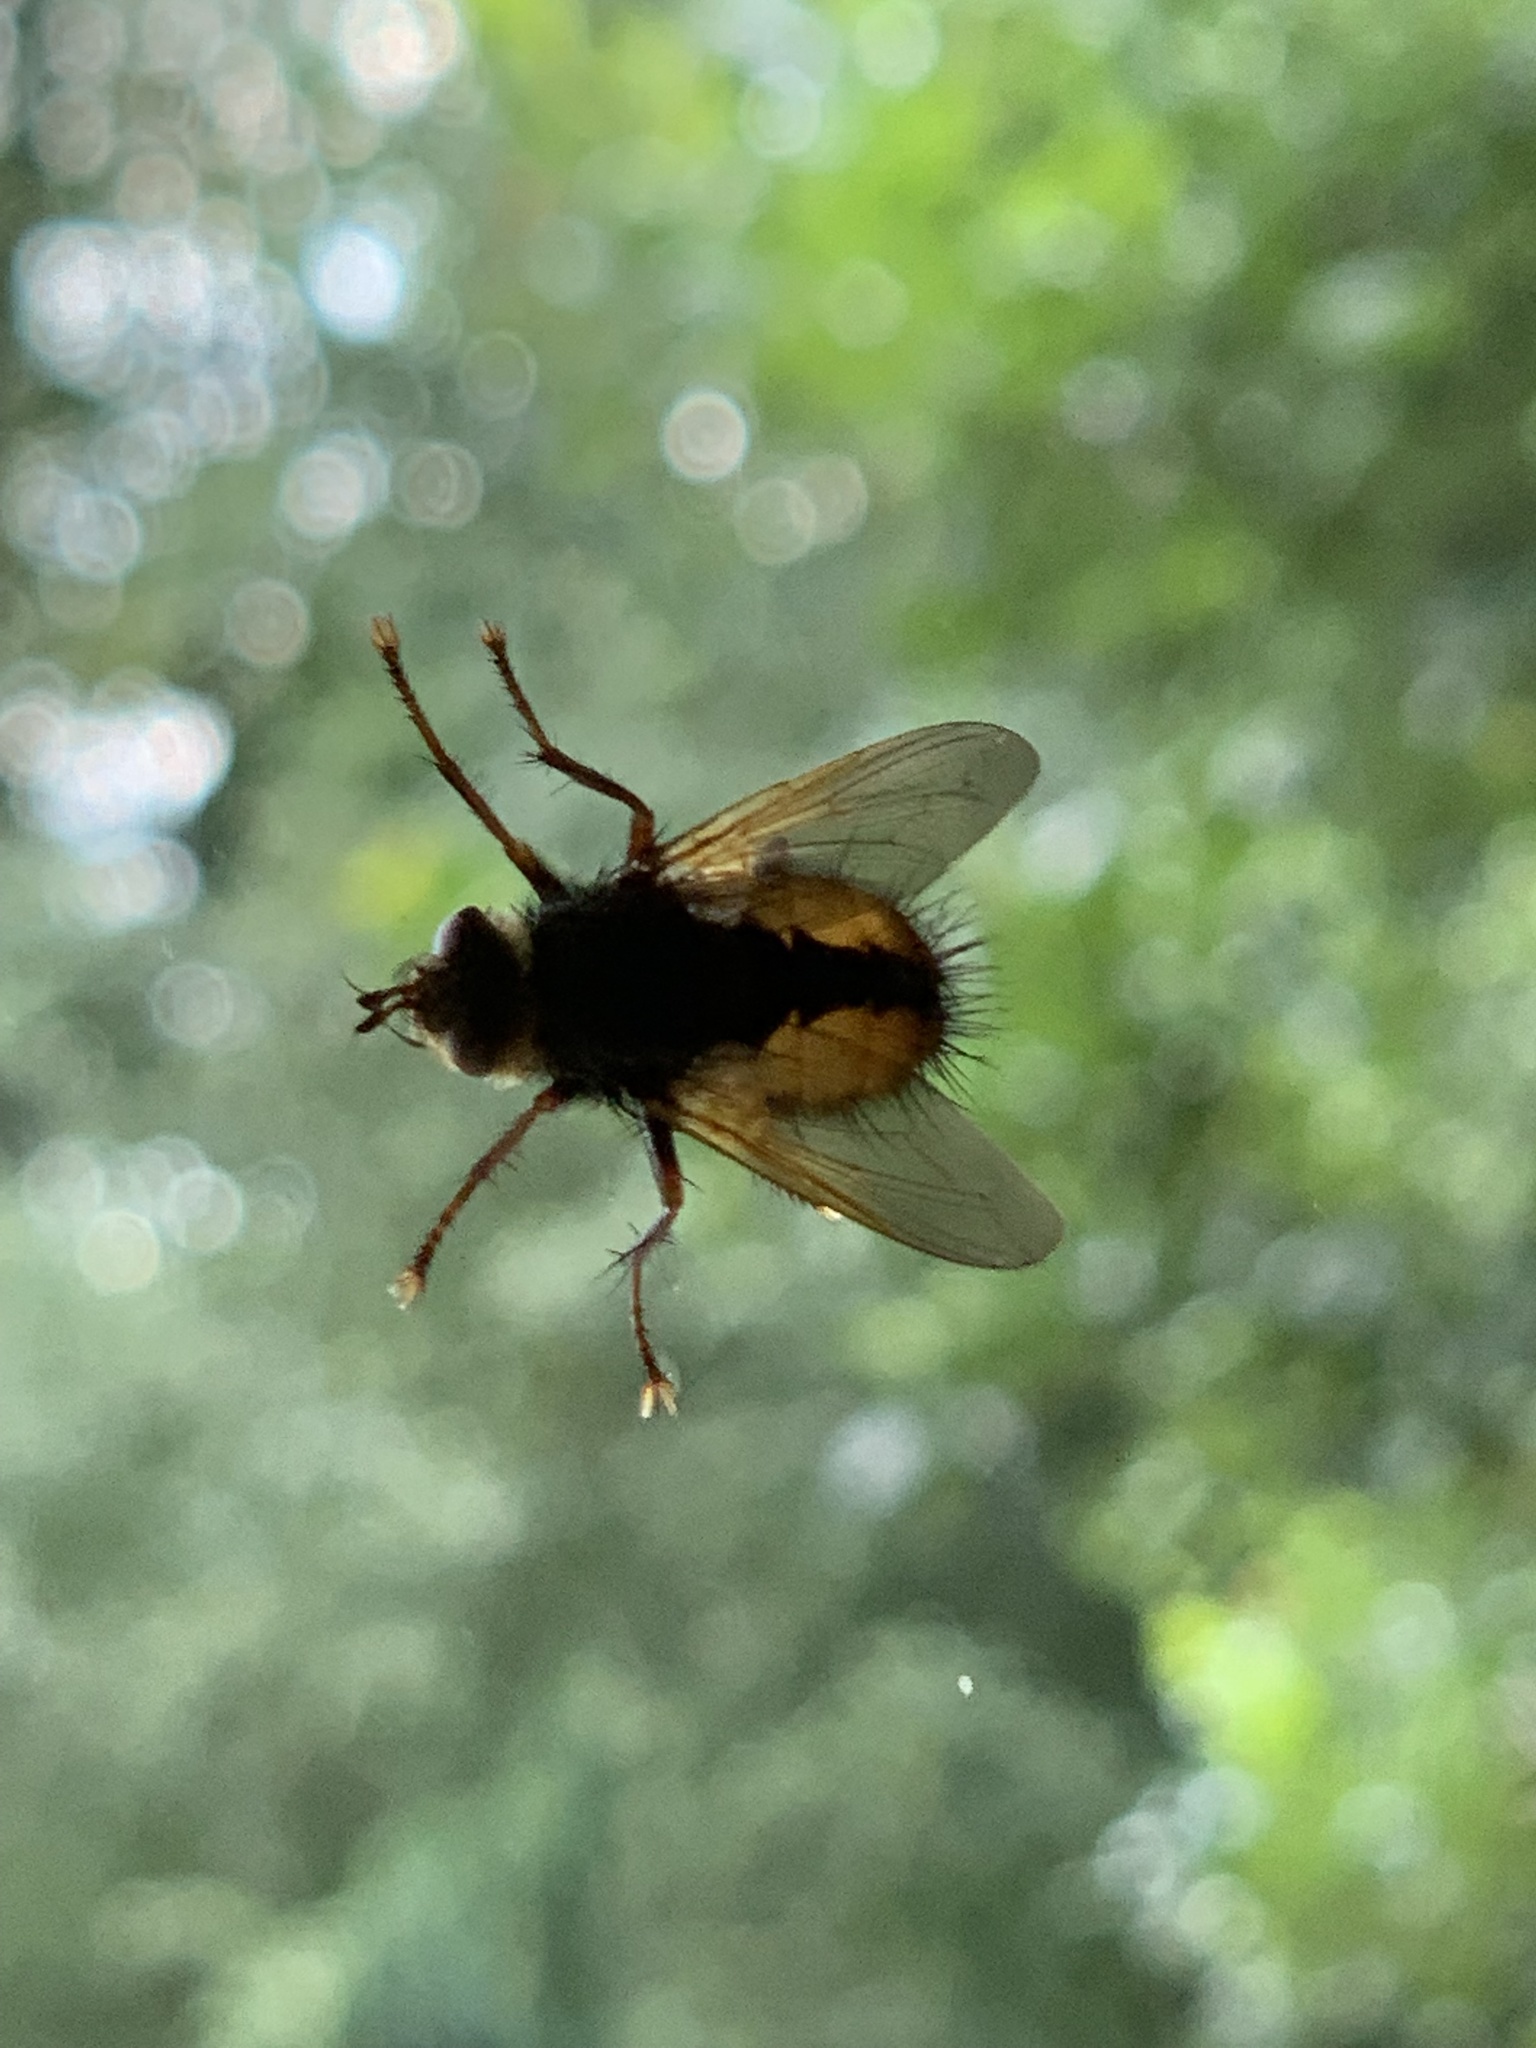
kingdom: Animalia
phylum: Arthropoda
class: Insecta
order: Diptera
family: Tachinidae
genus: Tachina
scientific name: Tachina fera
